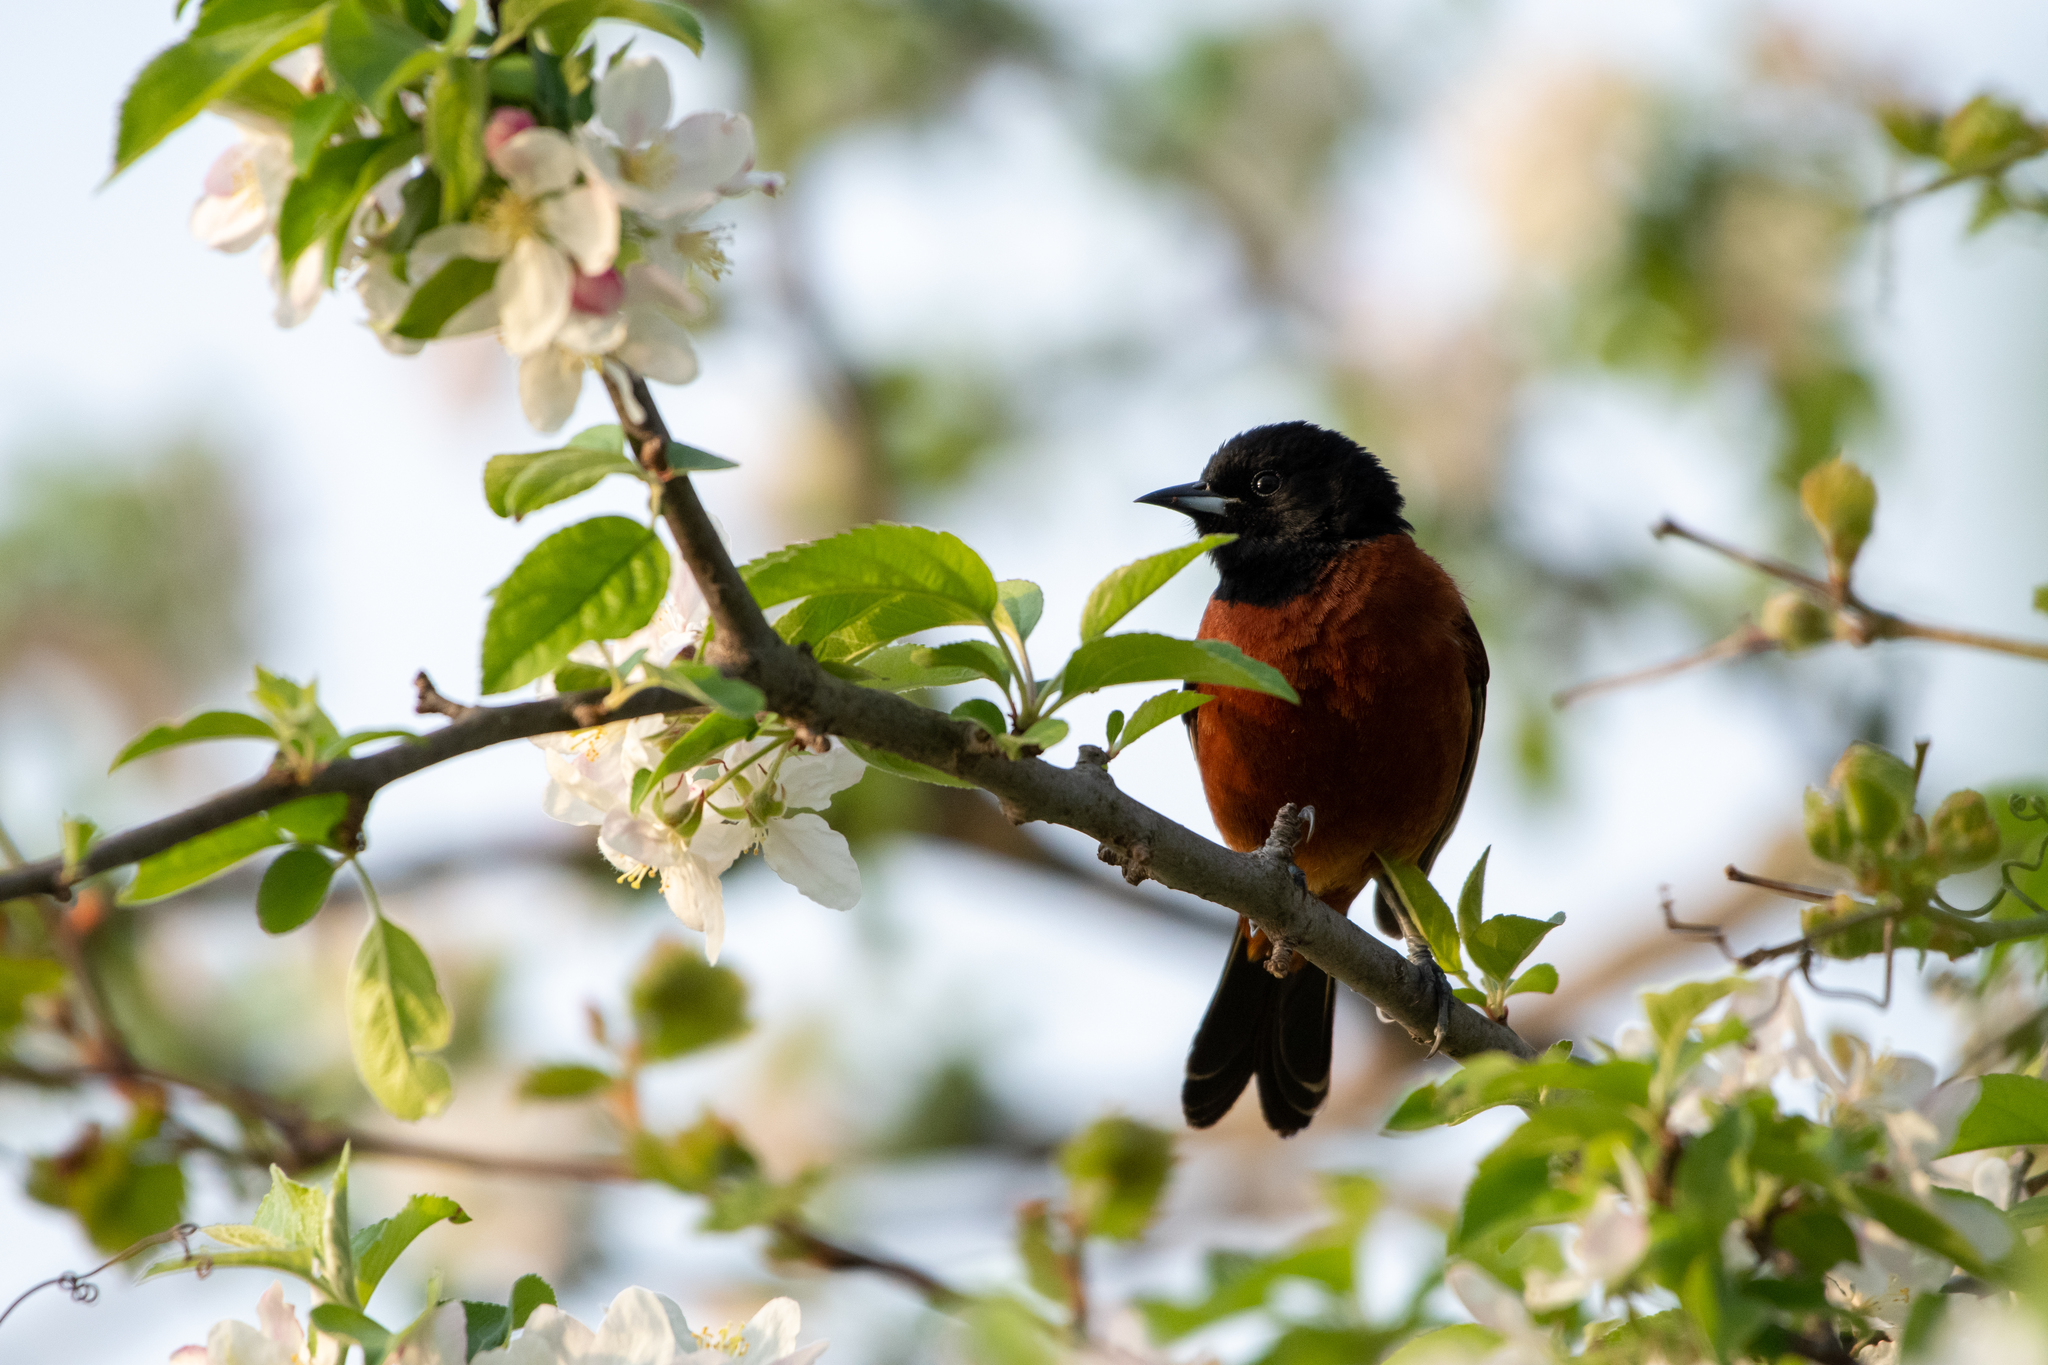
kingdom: Animalia
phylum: Chordata
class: Aves
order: Passeriformes
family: Icteridae
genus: Icterus
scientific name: Icterus spurius
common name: Orchard oriole
